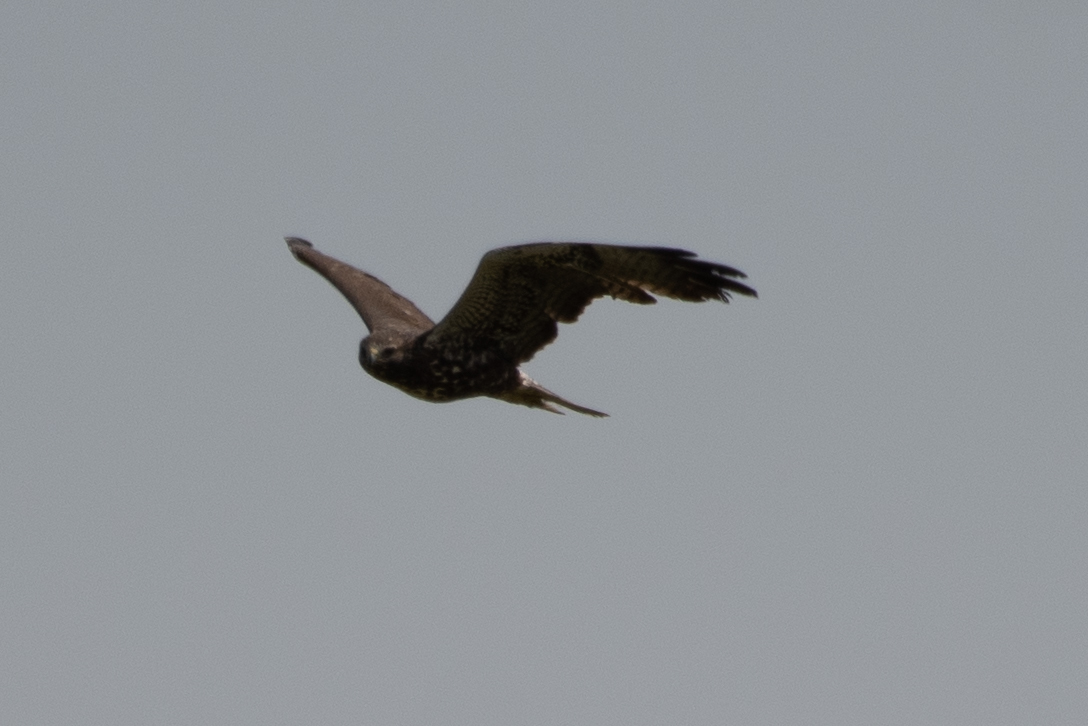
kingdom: Animalia
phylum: Chordata
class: Aves
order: Accipitriformes
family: Accipitridae
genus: Buteo
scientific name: Buteo swainsoni
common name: Swainson's hawk
